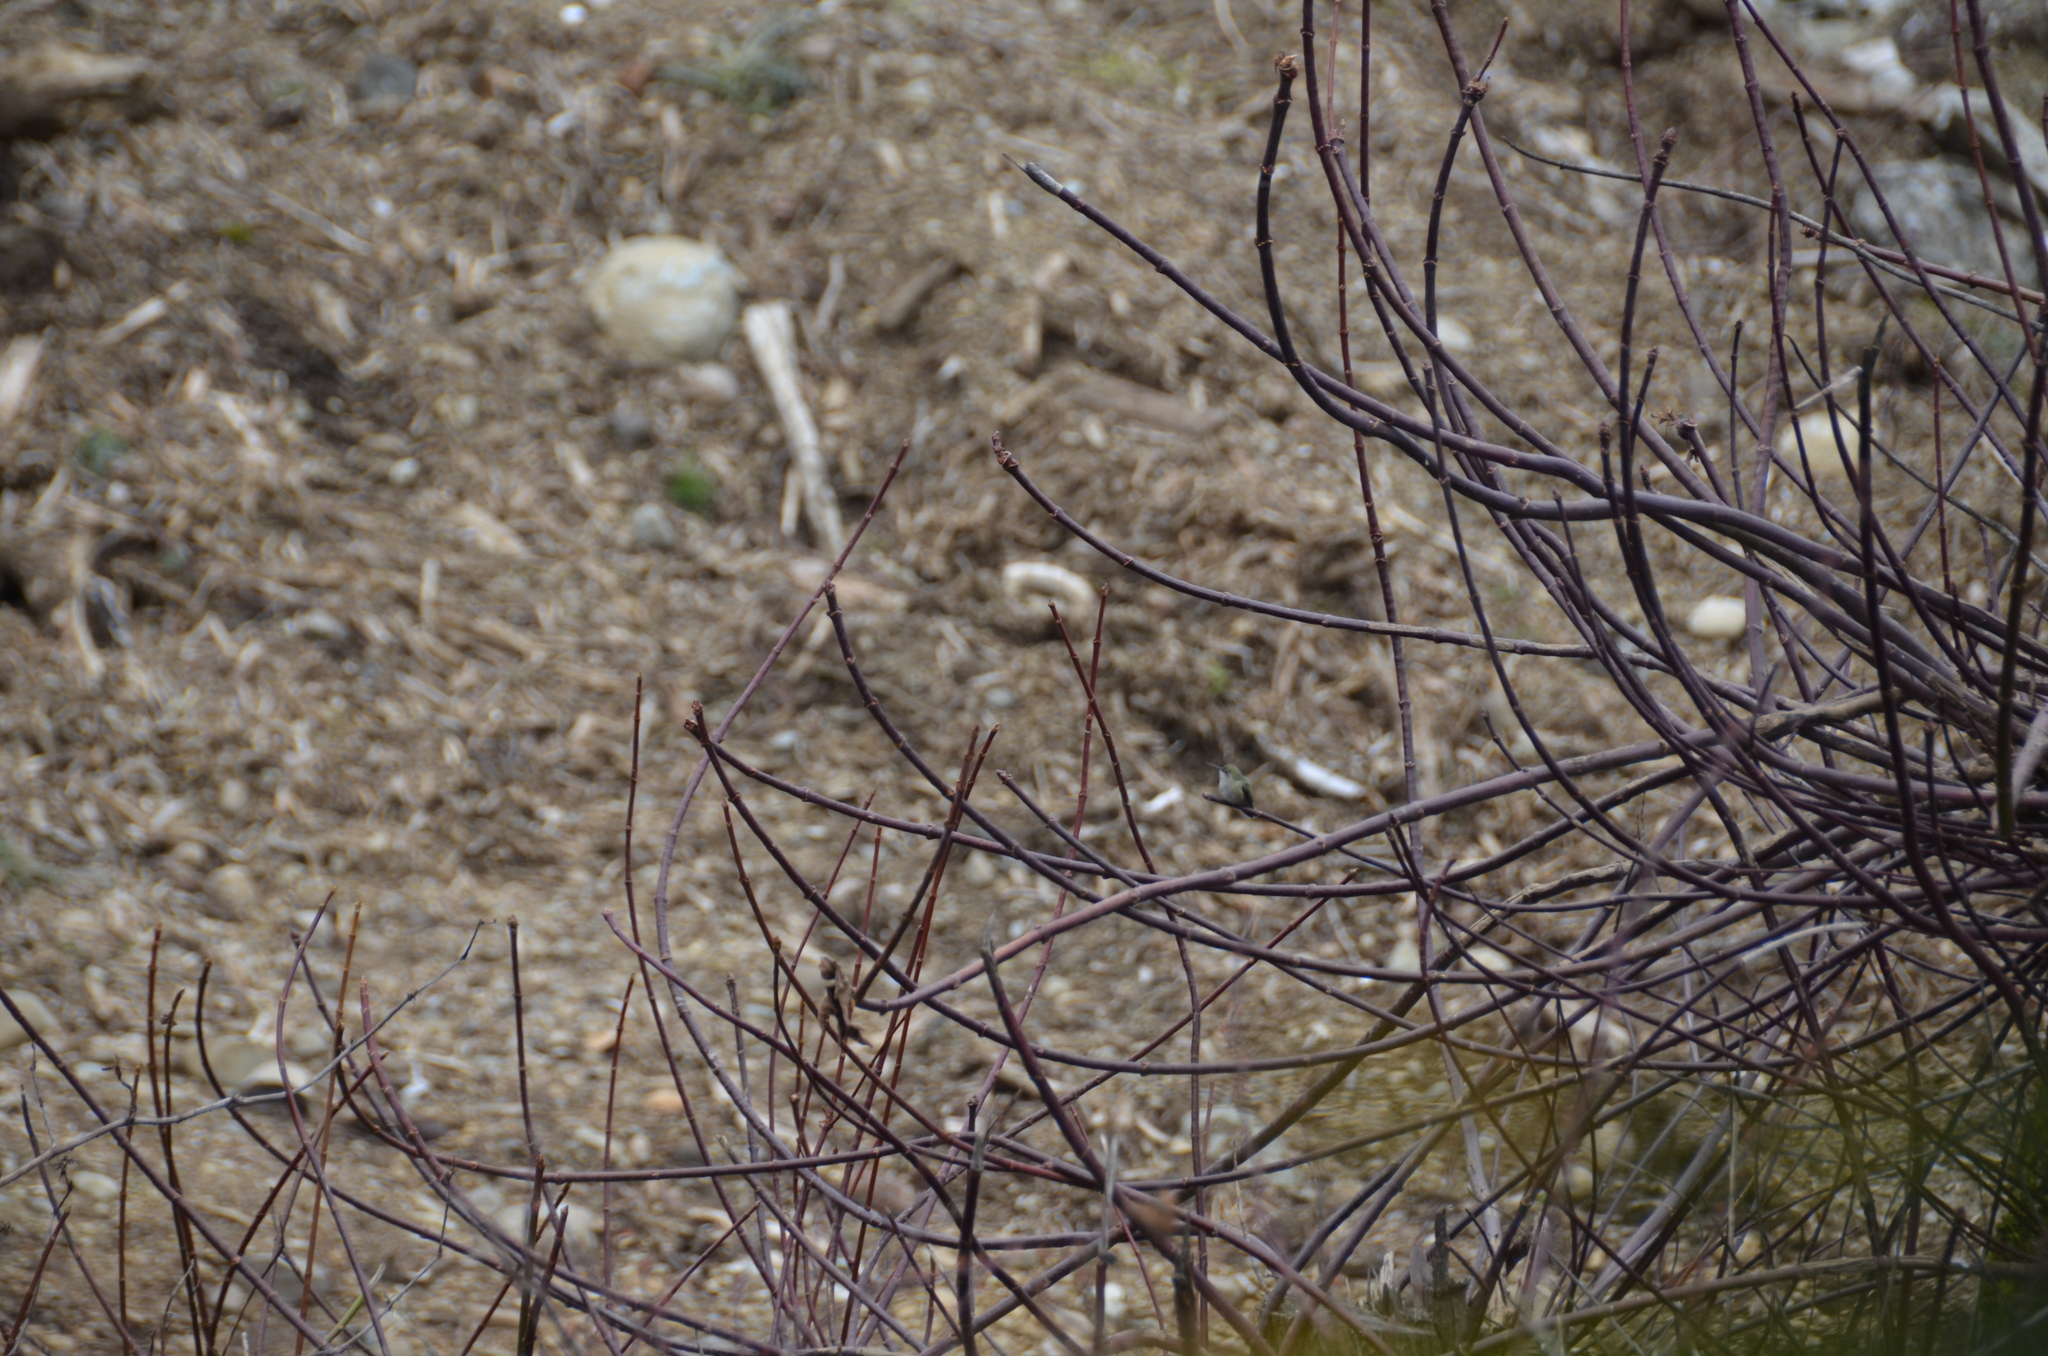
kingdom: Animalia
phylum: Chordata
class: Aves
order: Apodiformes
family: Trochilidae
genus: Calypte
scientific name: Calypte anna
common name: Anna's hummingbird
